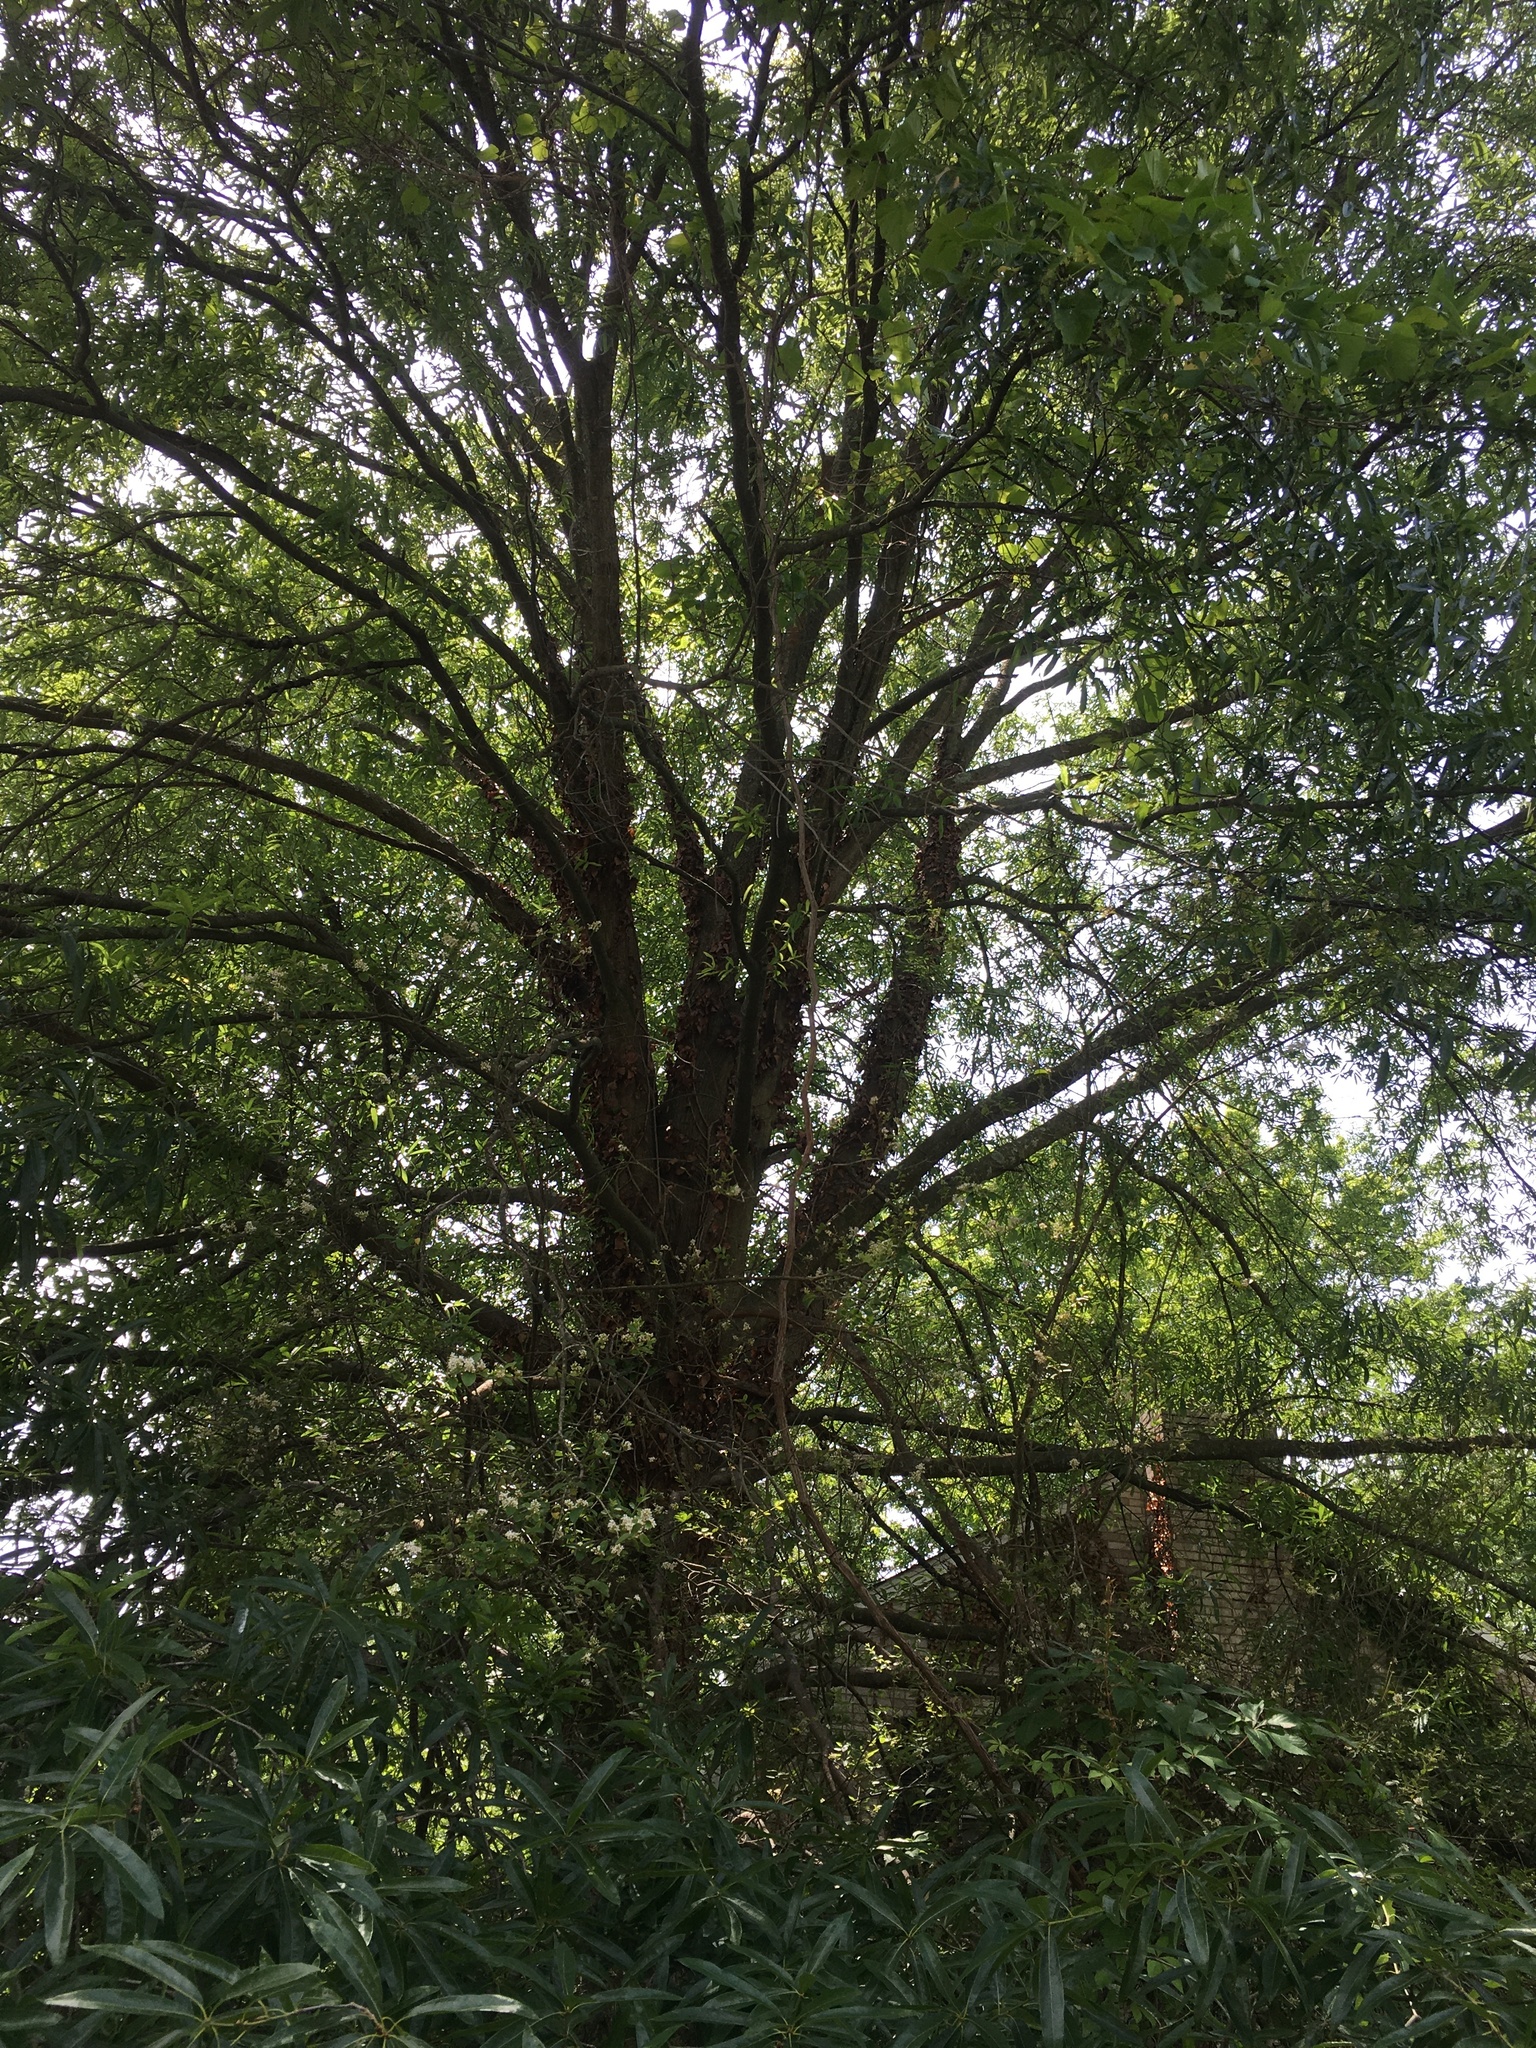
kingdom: Plantae
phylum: Tracheophyta
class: Magnoliopsida
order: Fagales
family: Fagaceae
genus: Quercus
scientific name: Quercus phellos
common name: Willow oak
